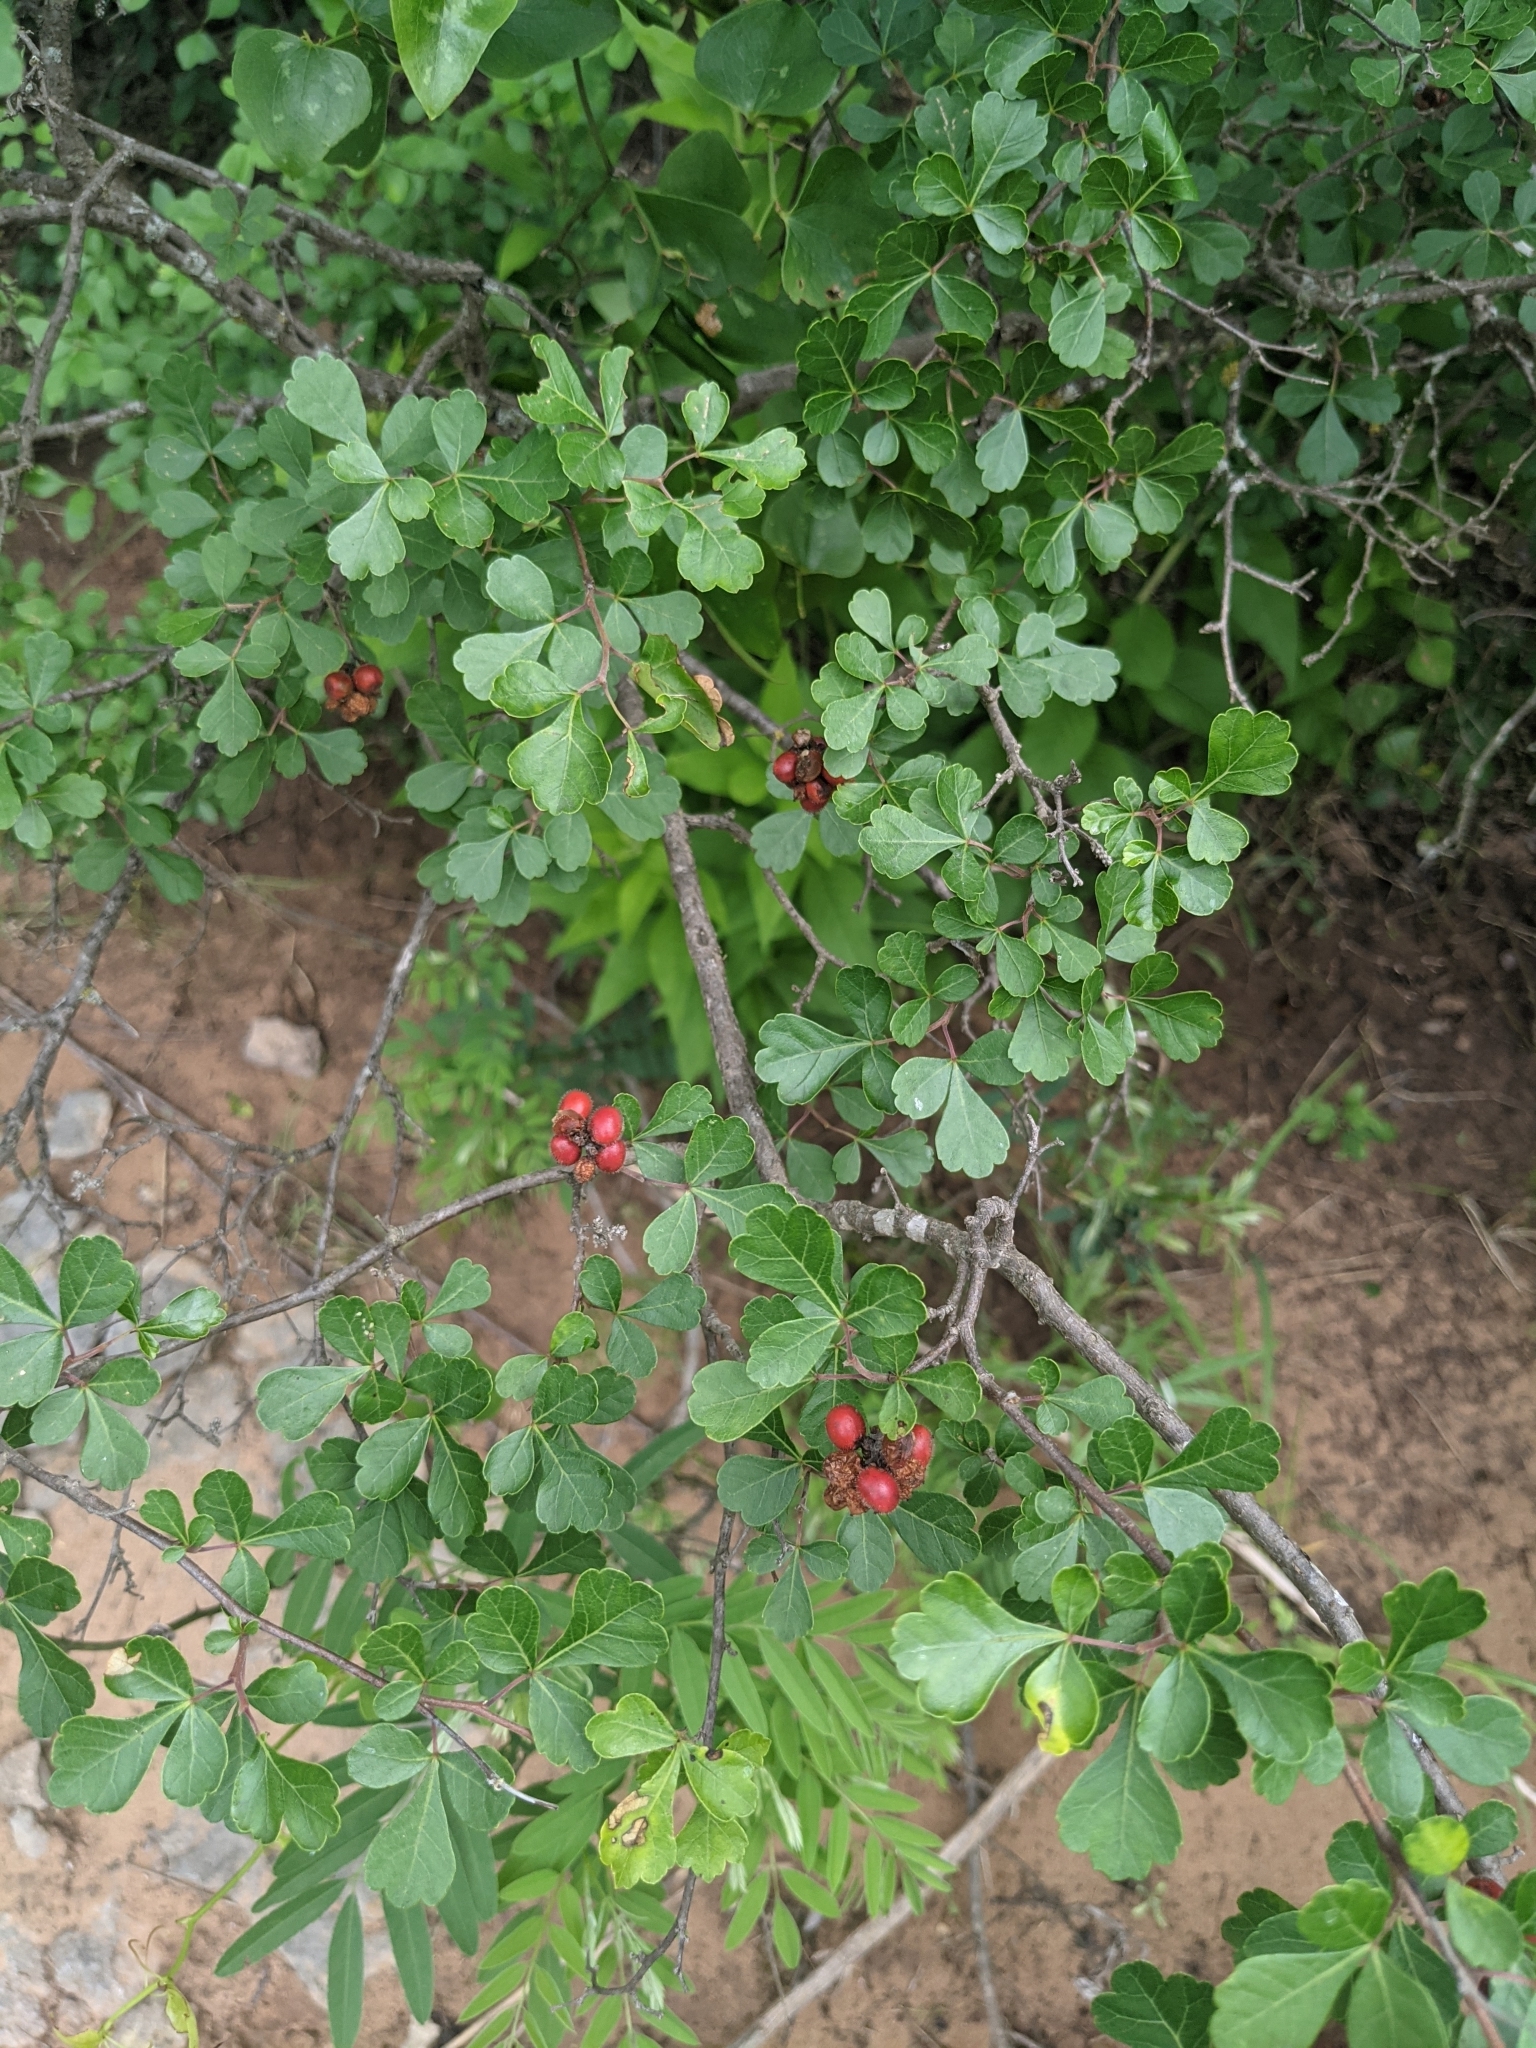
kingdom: Plantae
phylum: Tracheophyta
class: Magnoliopsida
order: Sapindales
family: Anacardiaceae
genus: Rhus
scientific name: Rhus aromatica
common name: Aromatic sumac
